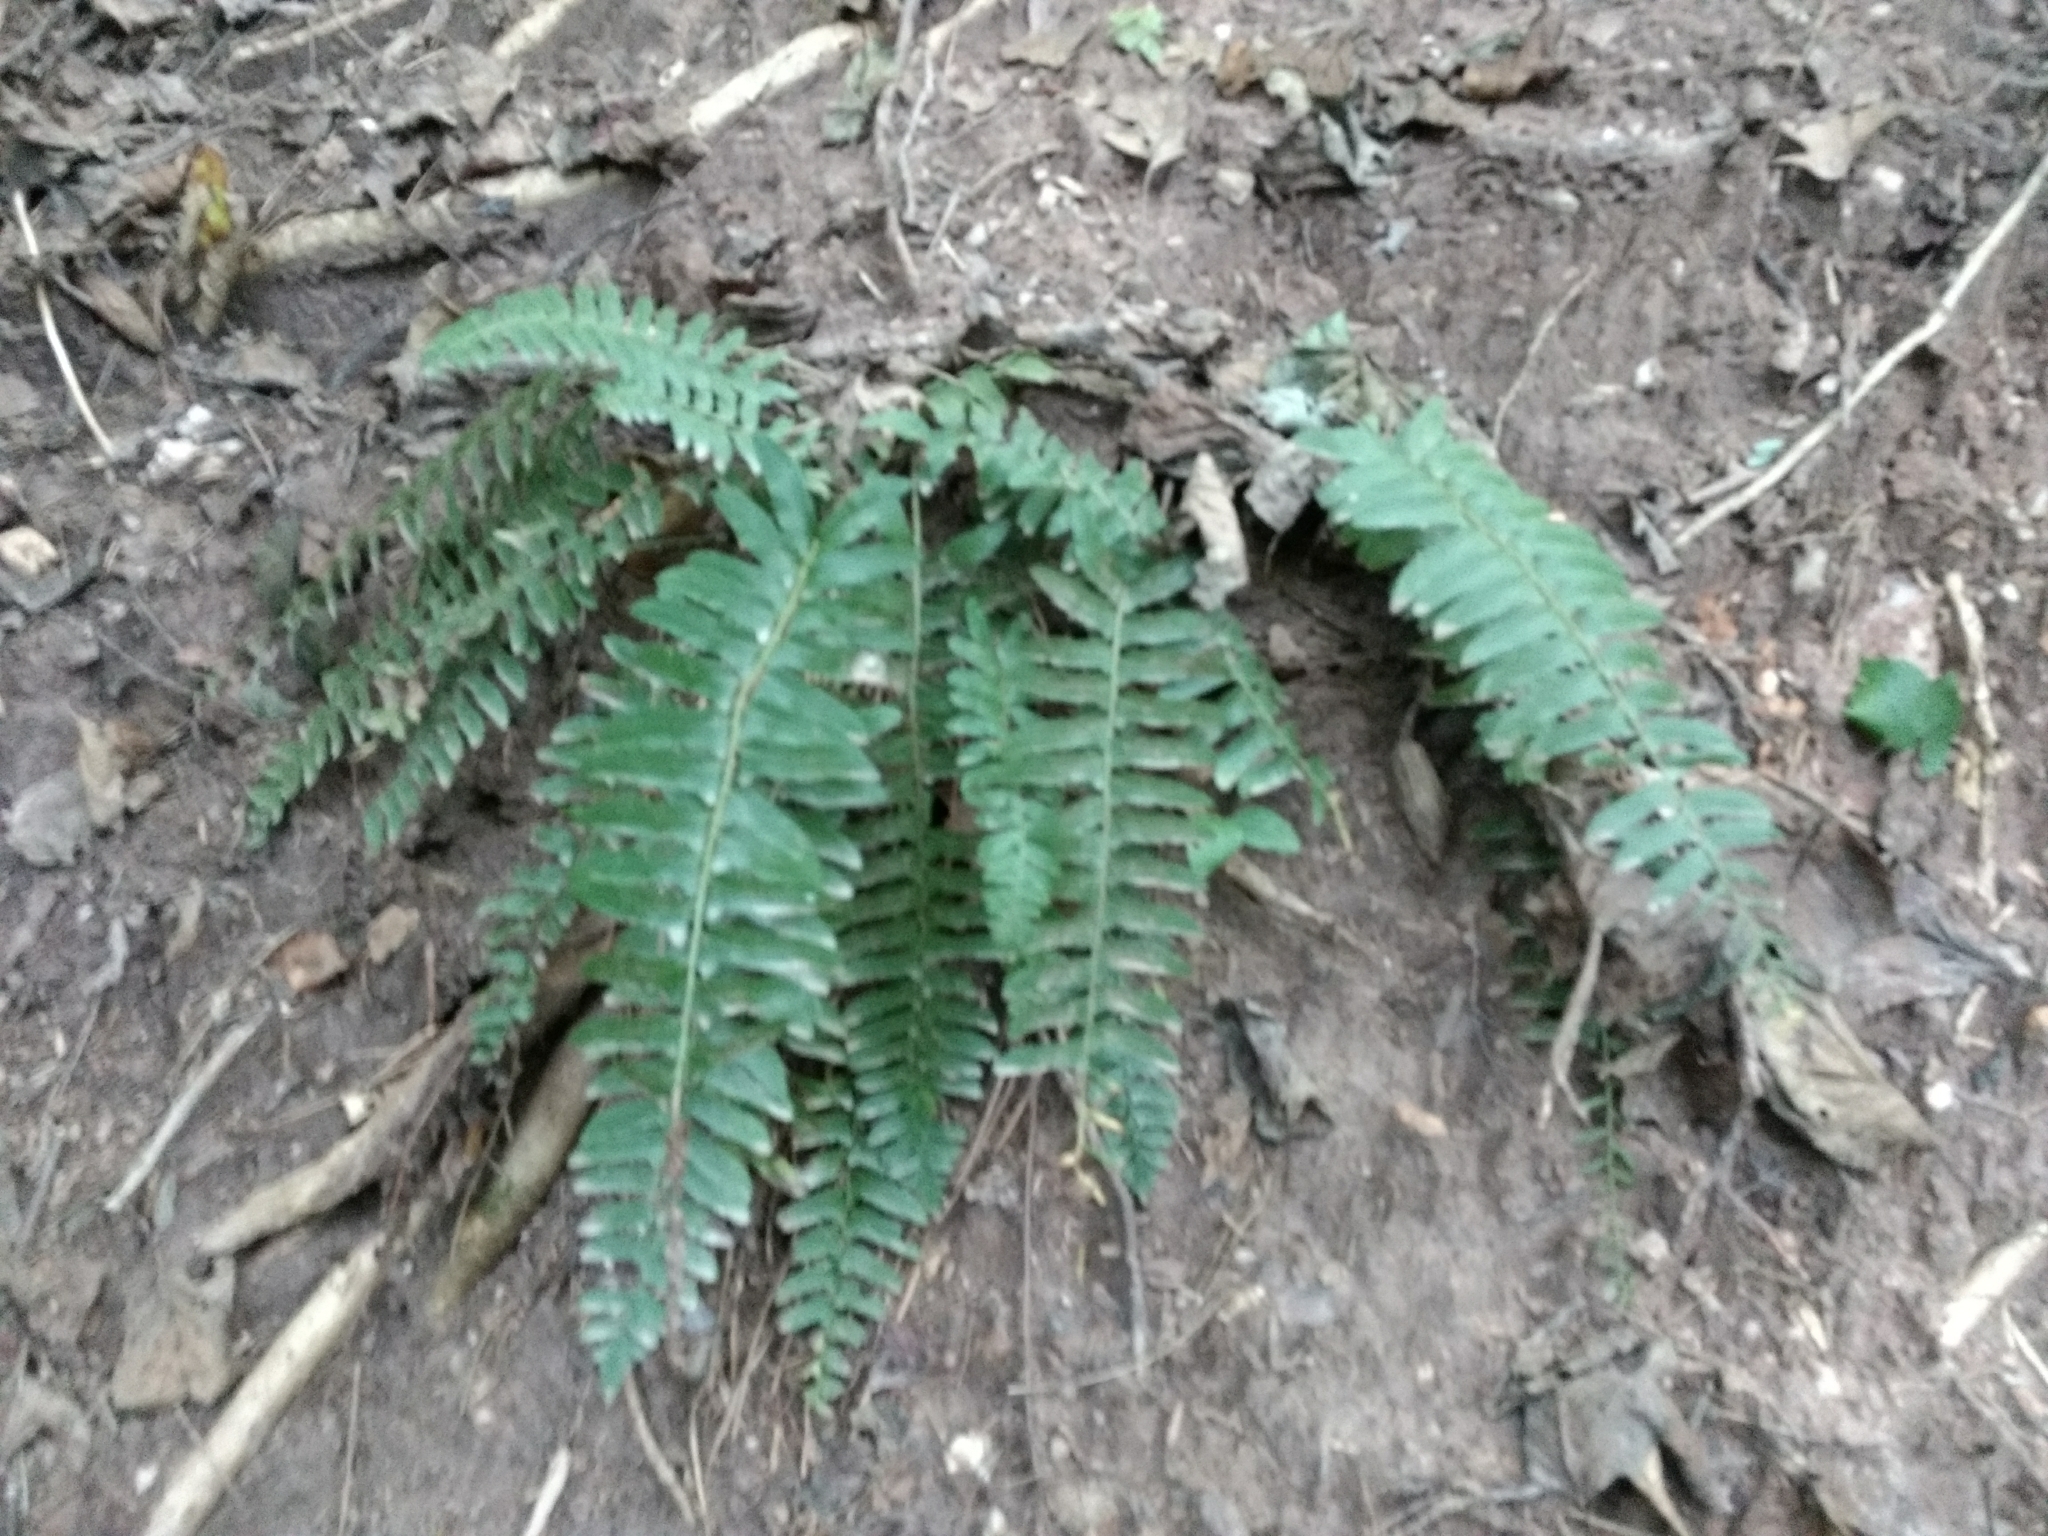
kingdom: Plantae
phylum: Tracheophyta
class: Polypodiopsida
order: Polypodiales
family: Dryopteridaceae
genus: Polystichum
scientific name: Polystichum acrostichoides
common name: Christmas fern
